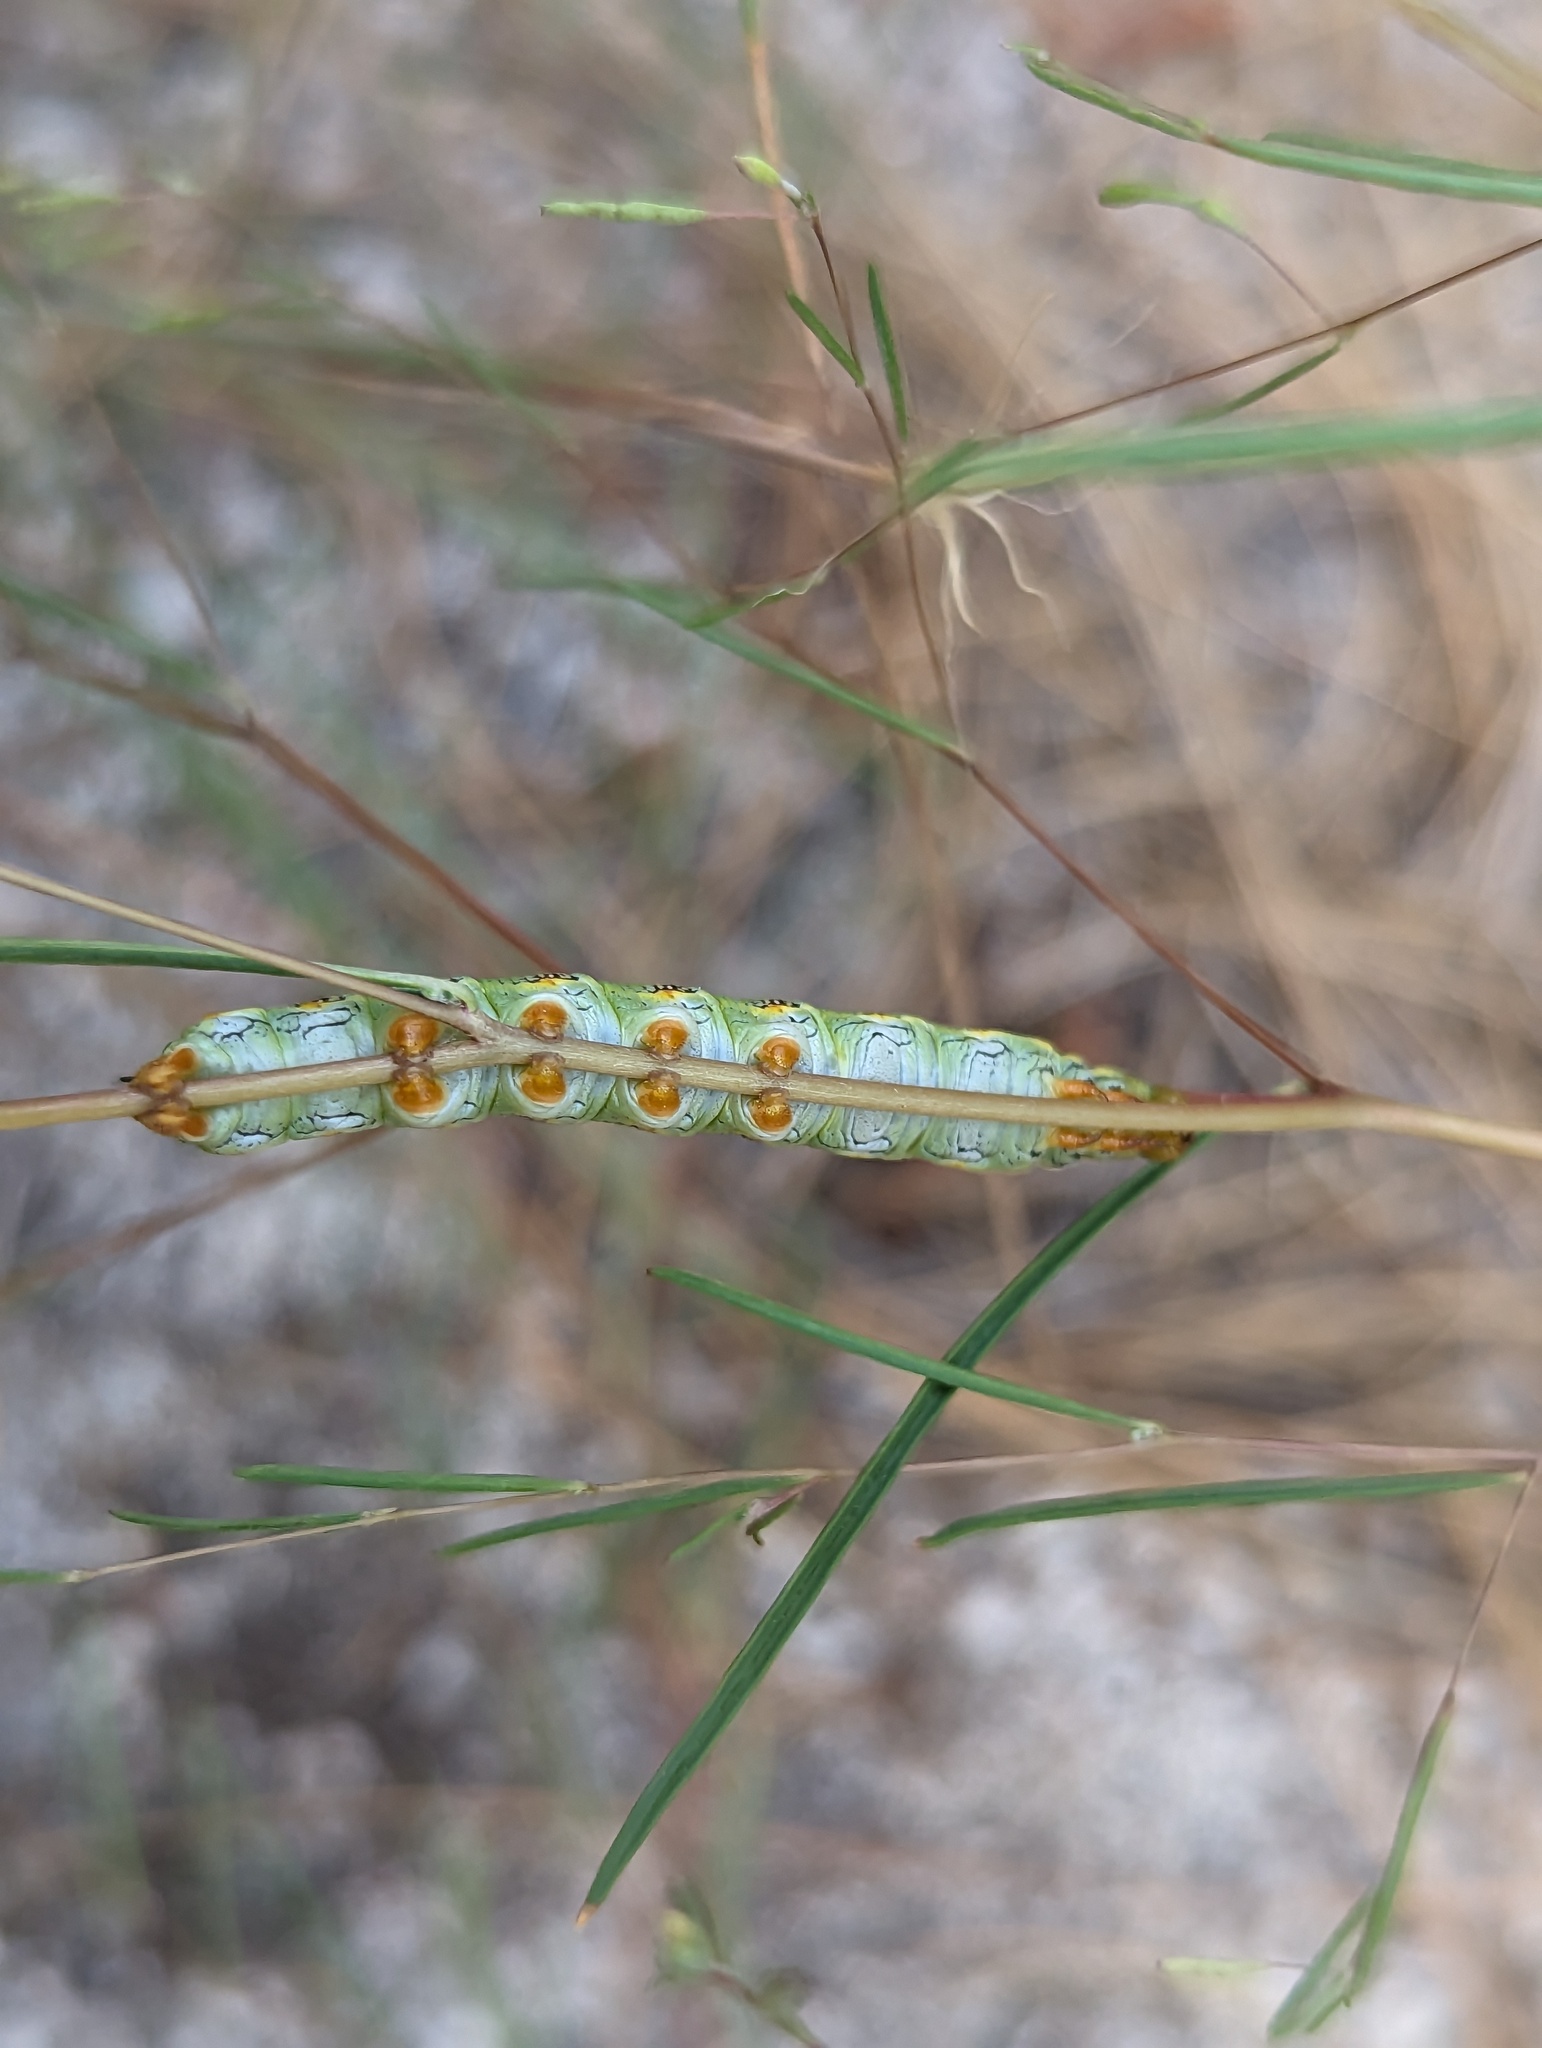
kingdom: Animalia
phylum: Arthropoda
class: Insecta
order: Lepidoptera
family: Sphingidae
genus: Hyles
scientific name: Hyles lineata
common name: White-lined sphinx
